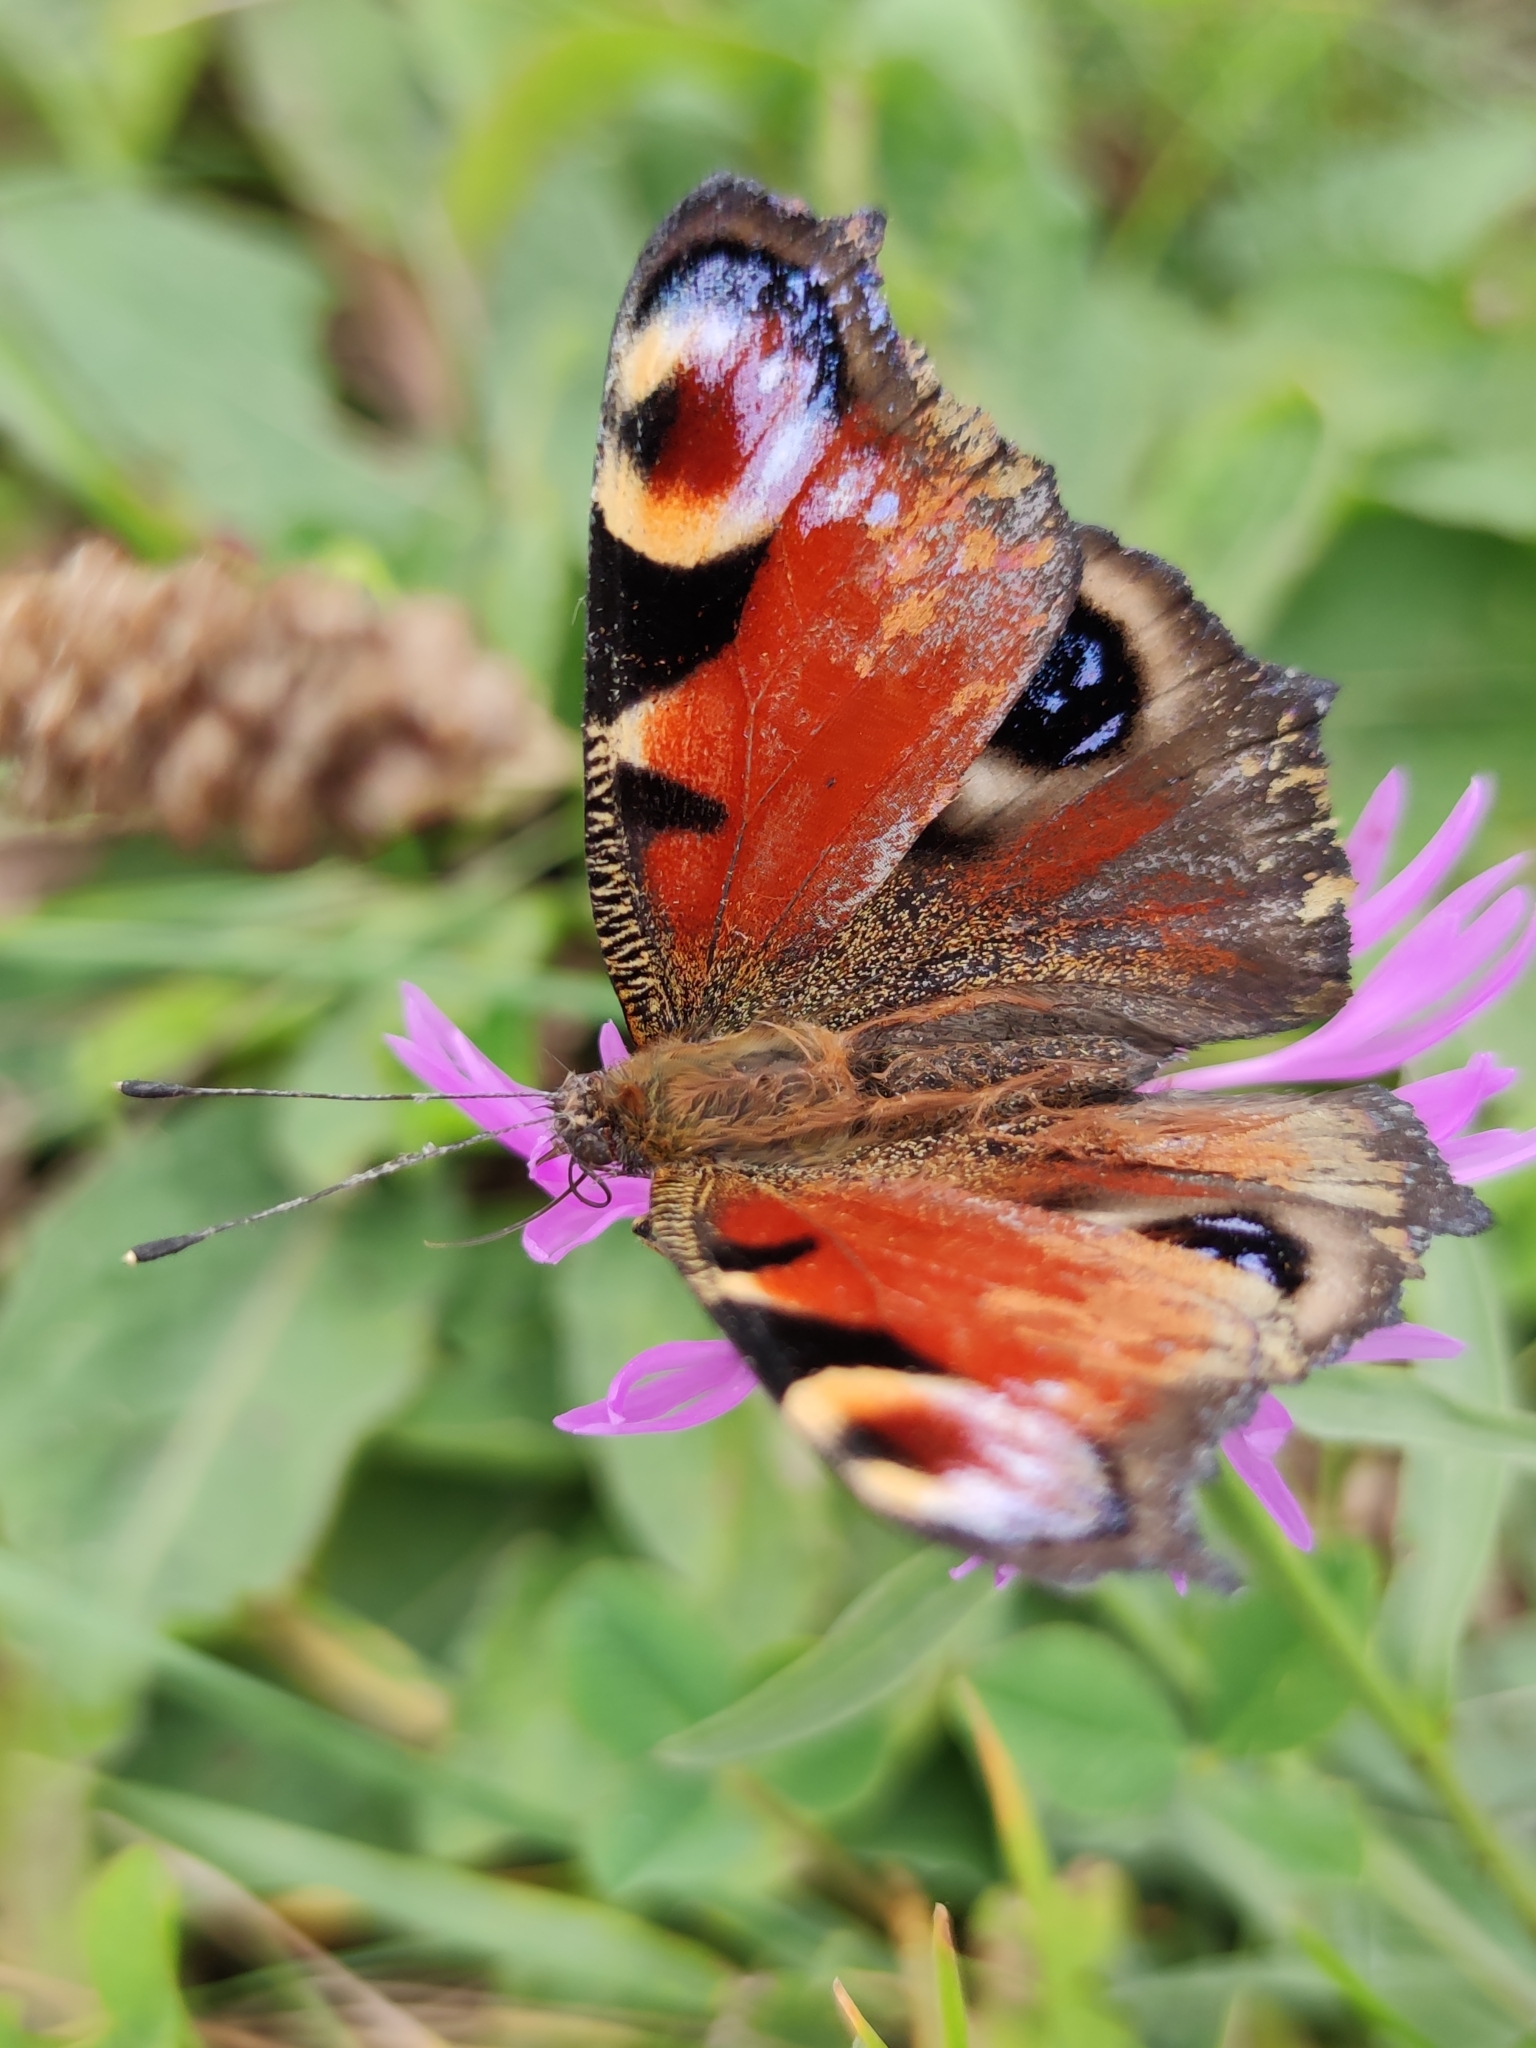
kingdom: Animalia
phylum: Arthropoda
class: Insecta
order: Lepidoptera
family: Nymphalidae
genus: Aglais
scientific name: Aglais io
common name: Peacock
